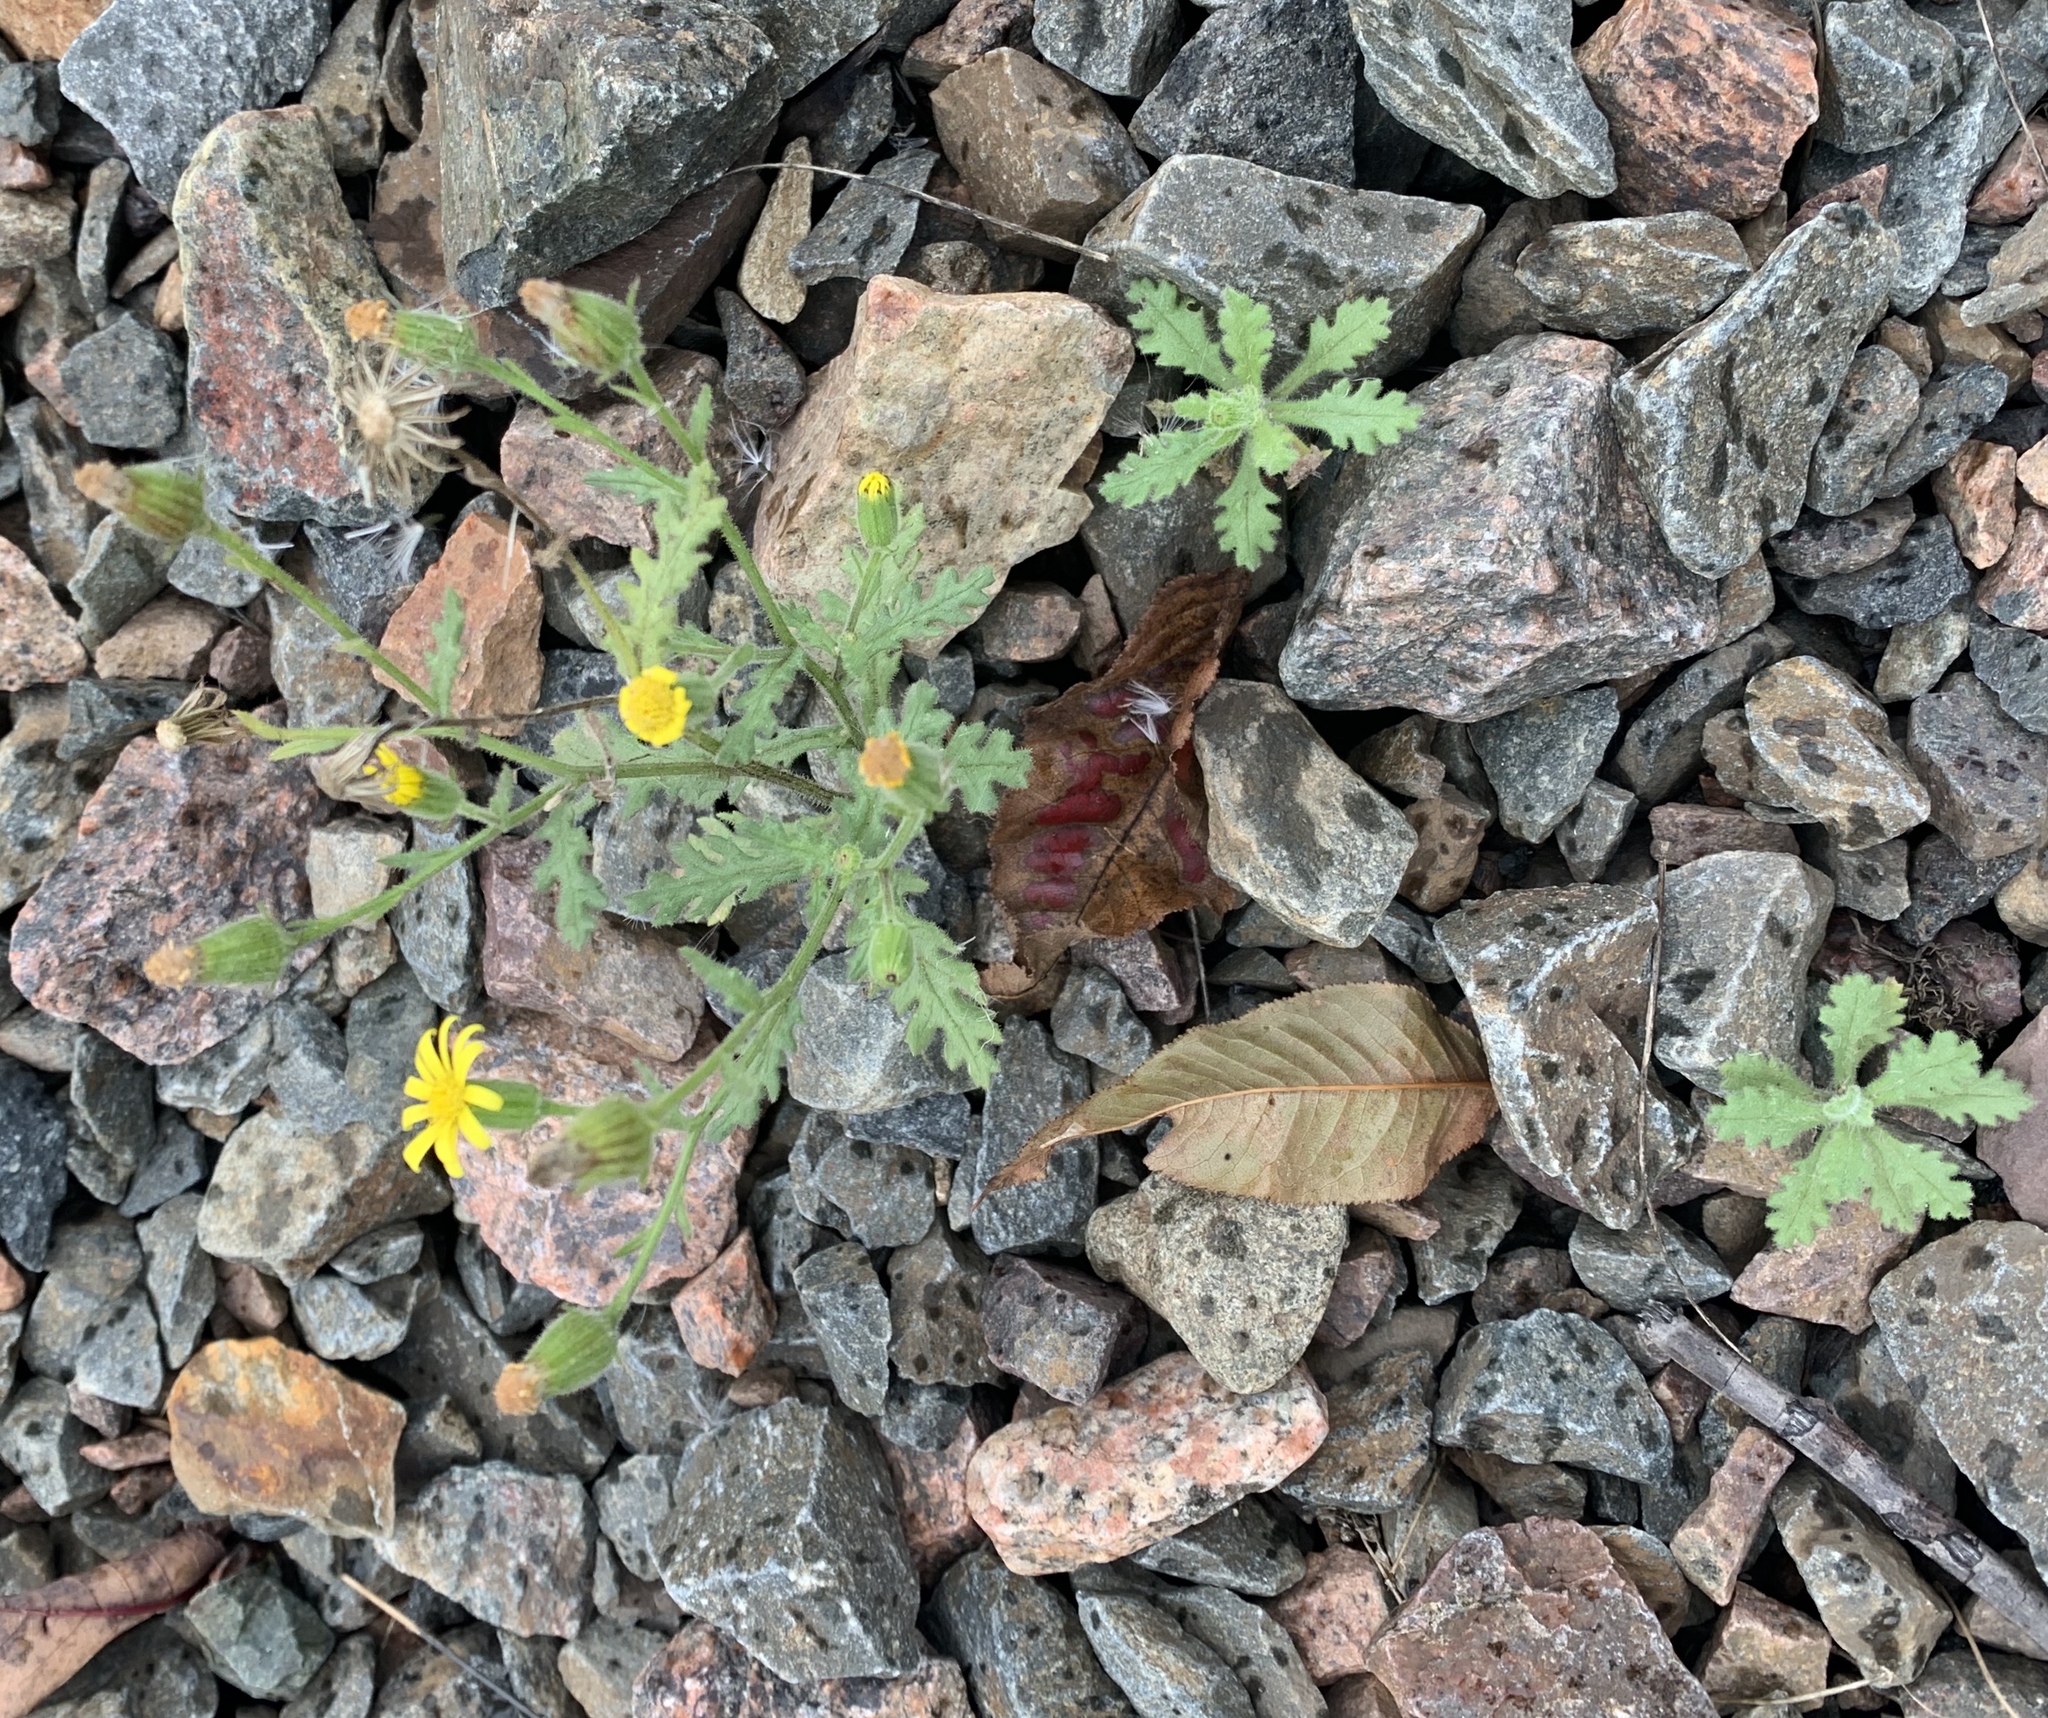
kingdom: Plantae
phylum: Tracheophyta
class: Magnoliopsida
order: Asterales
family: Asteraceae
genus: Senecio
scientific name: Senecio viscosus
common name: Sticky groundsel
